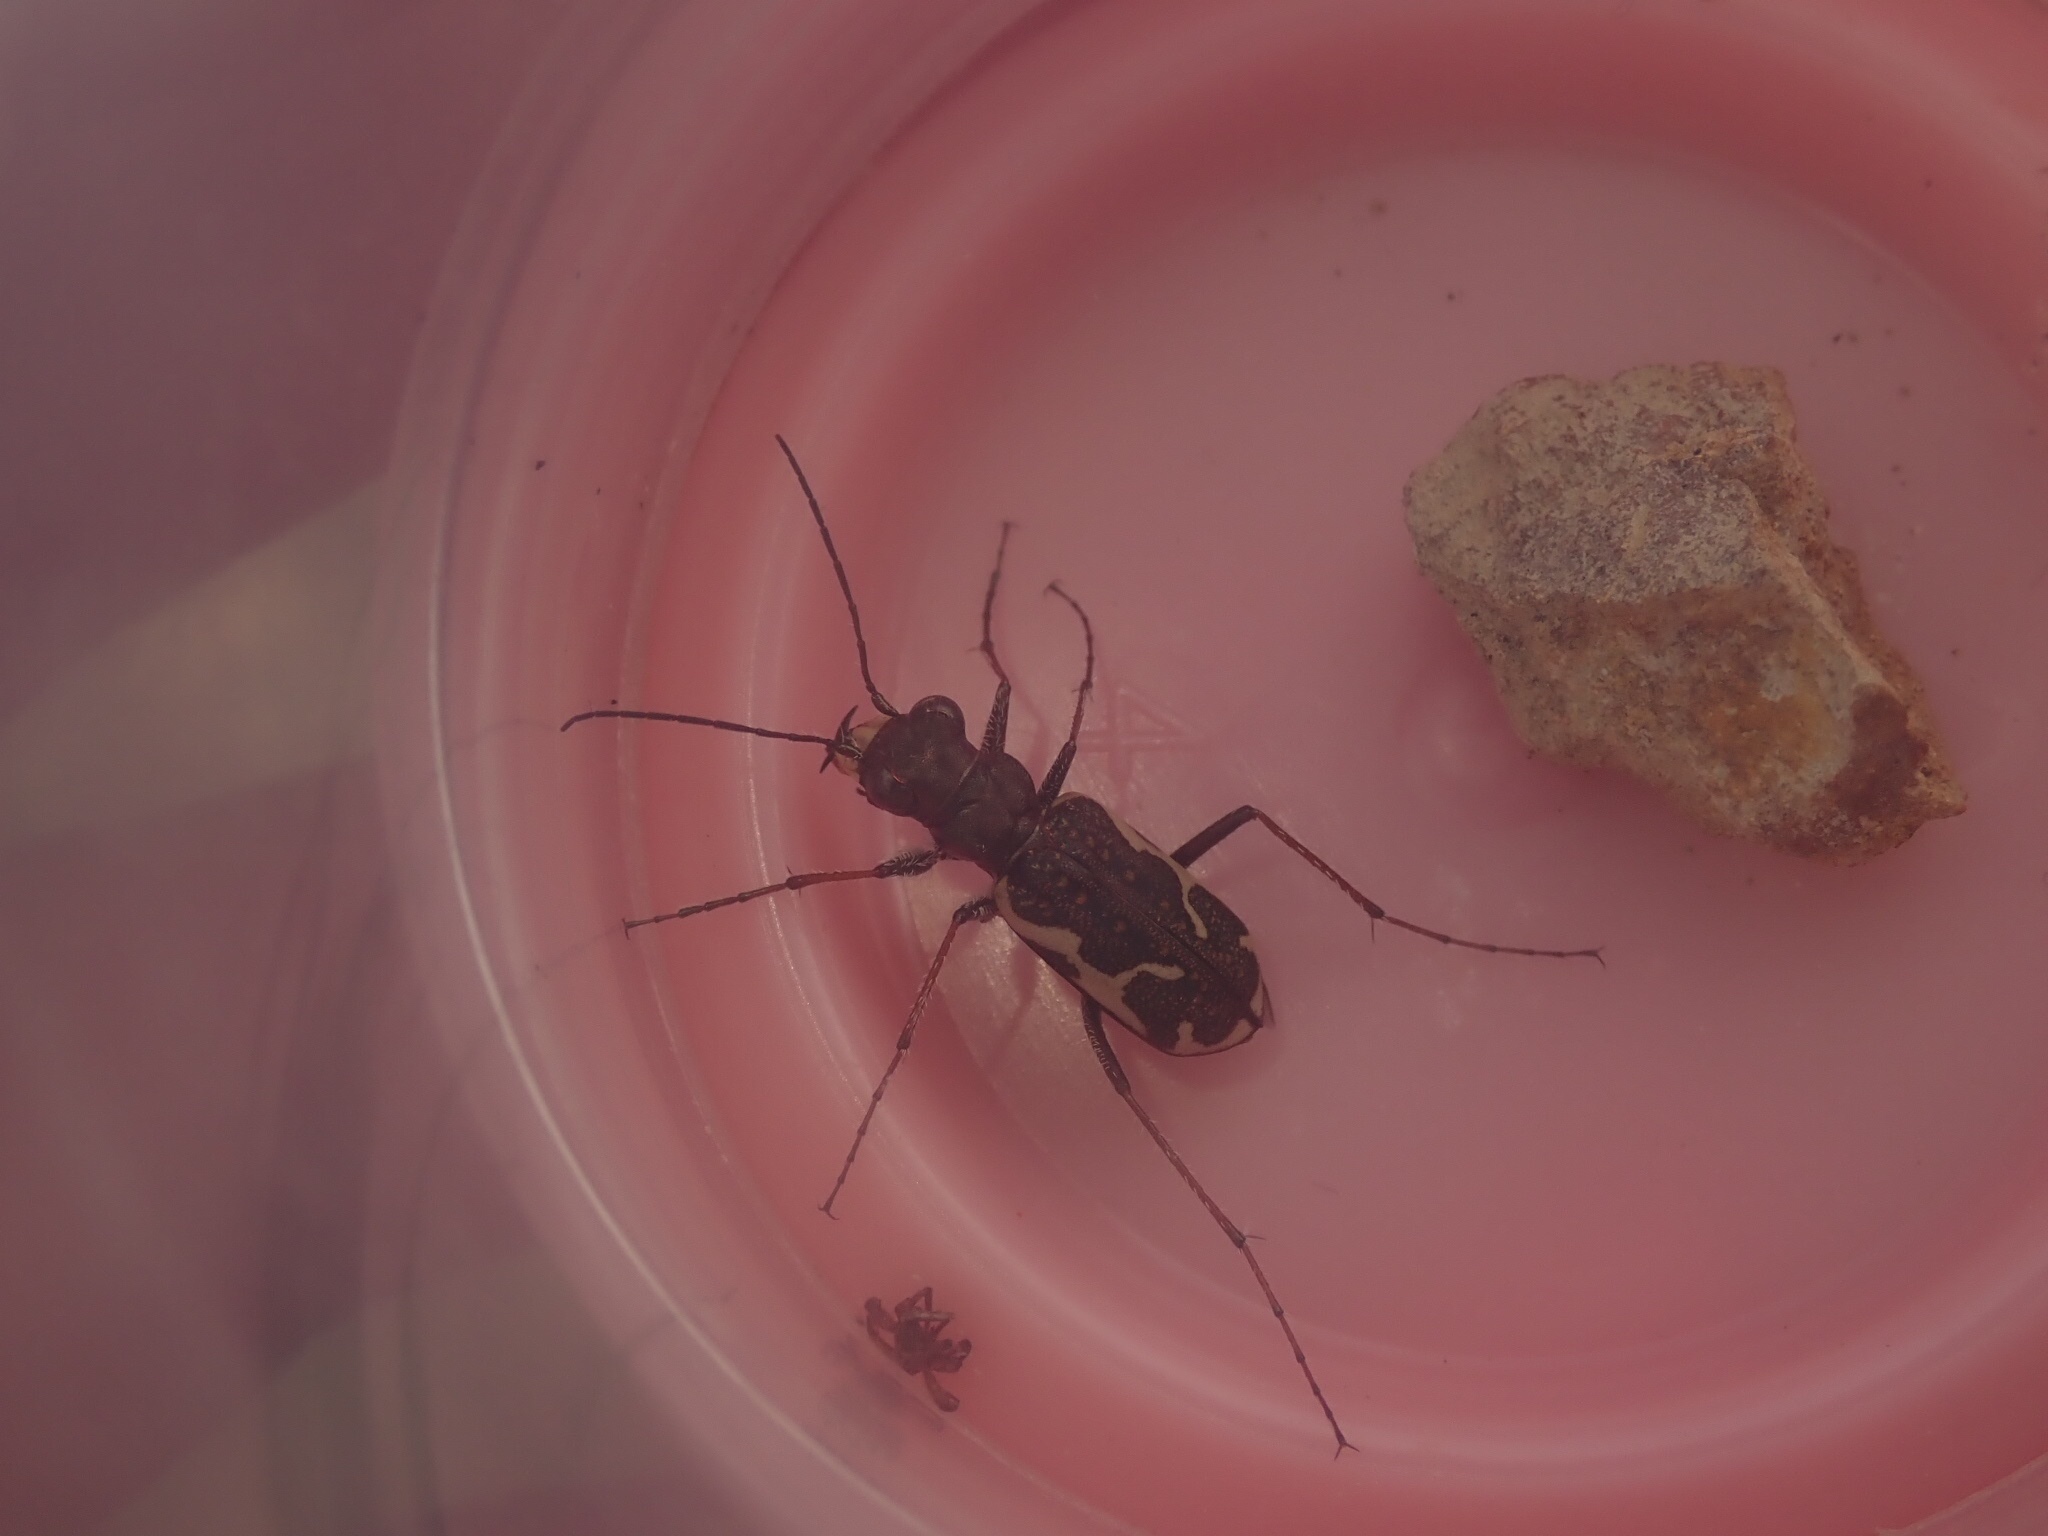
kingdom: Animalia
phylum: Arthropoda
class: Insecta
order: Coleoptera
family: Carabidae
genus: Neocicindela
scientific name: Neocicindela tuberculata
